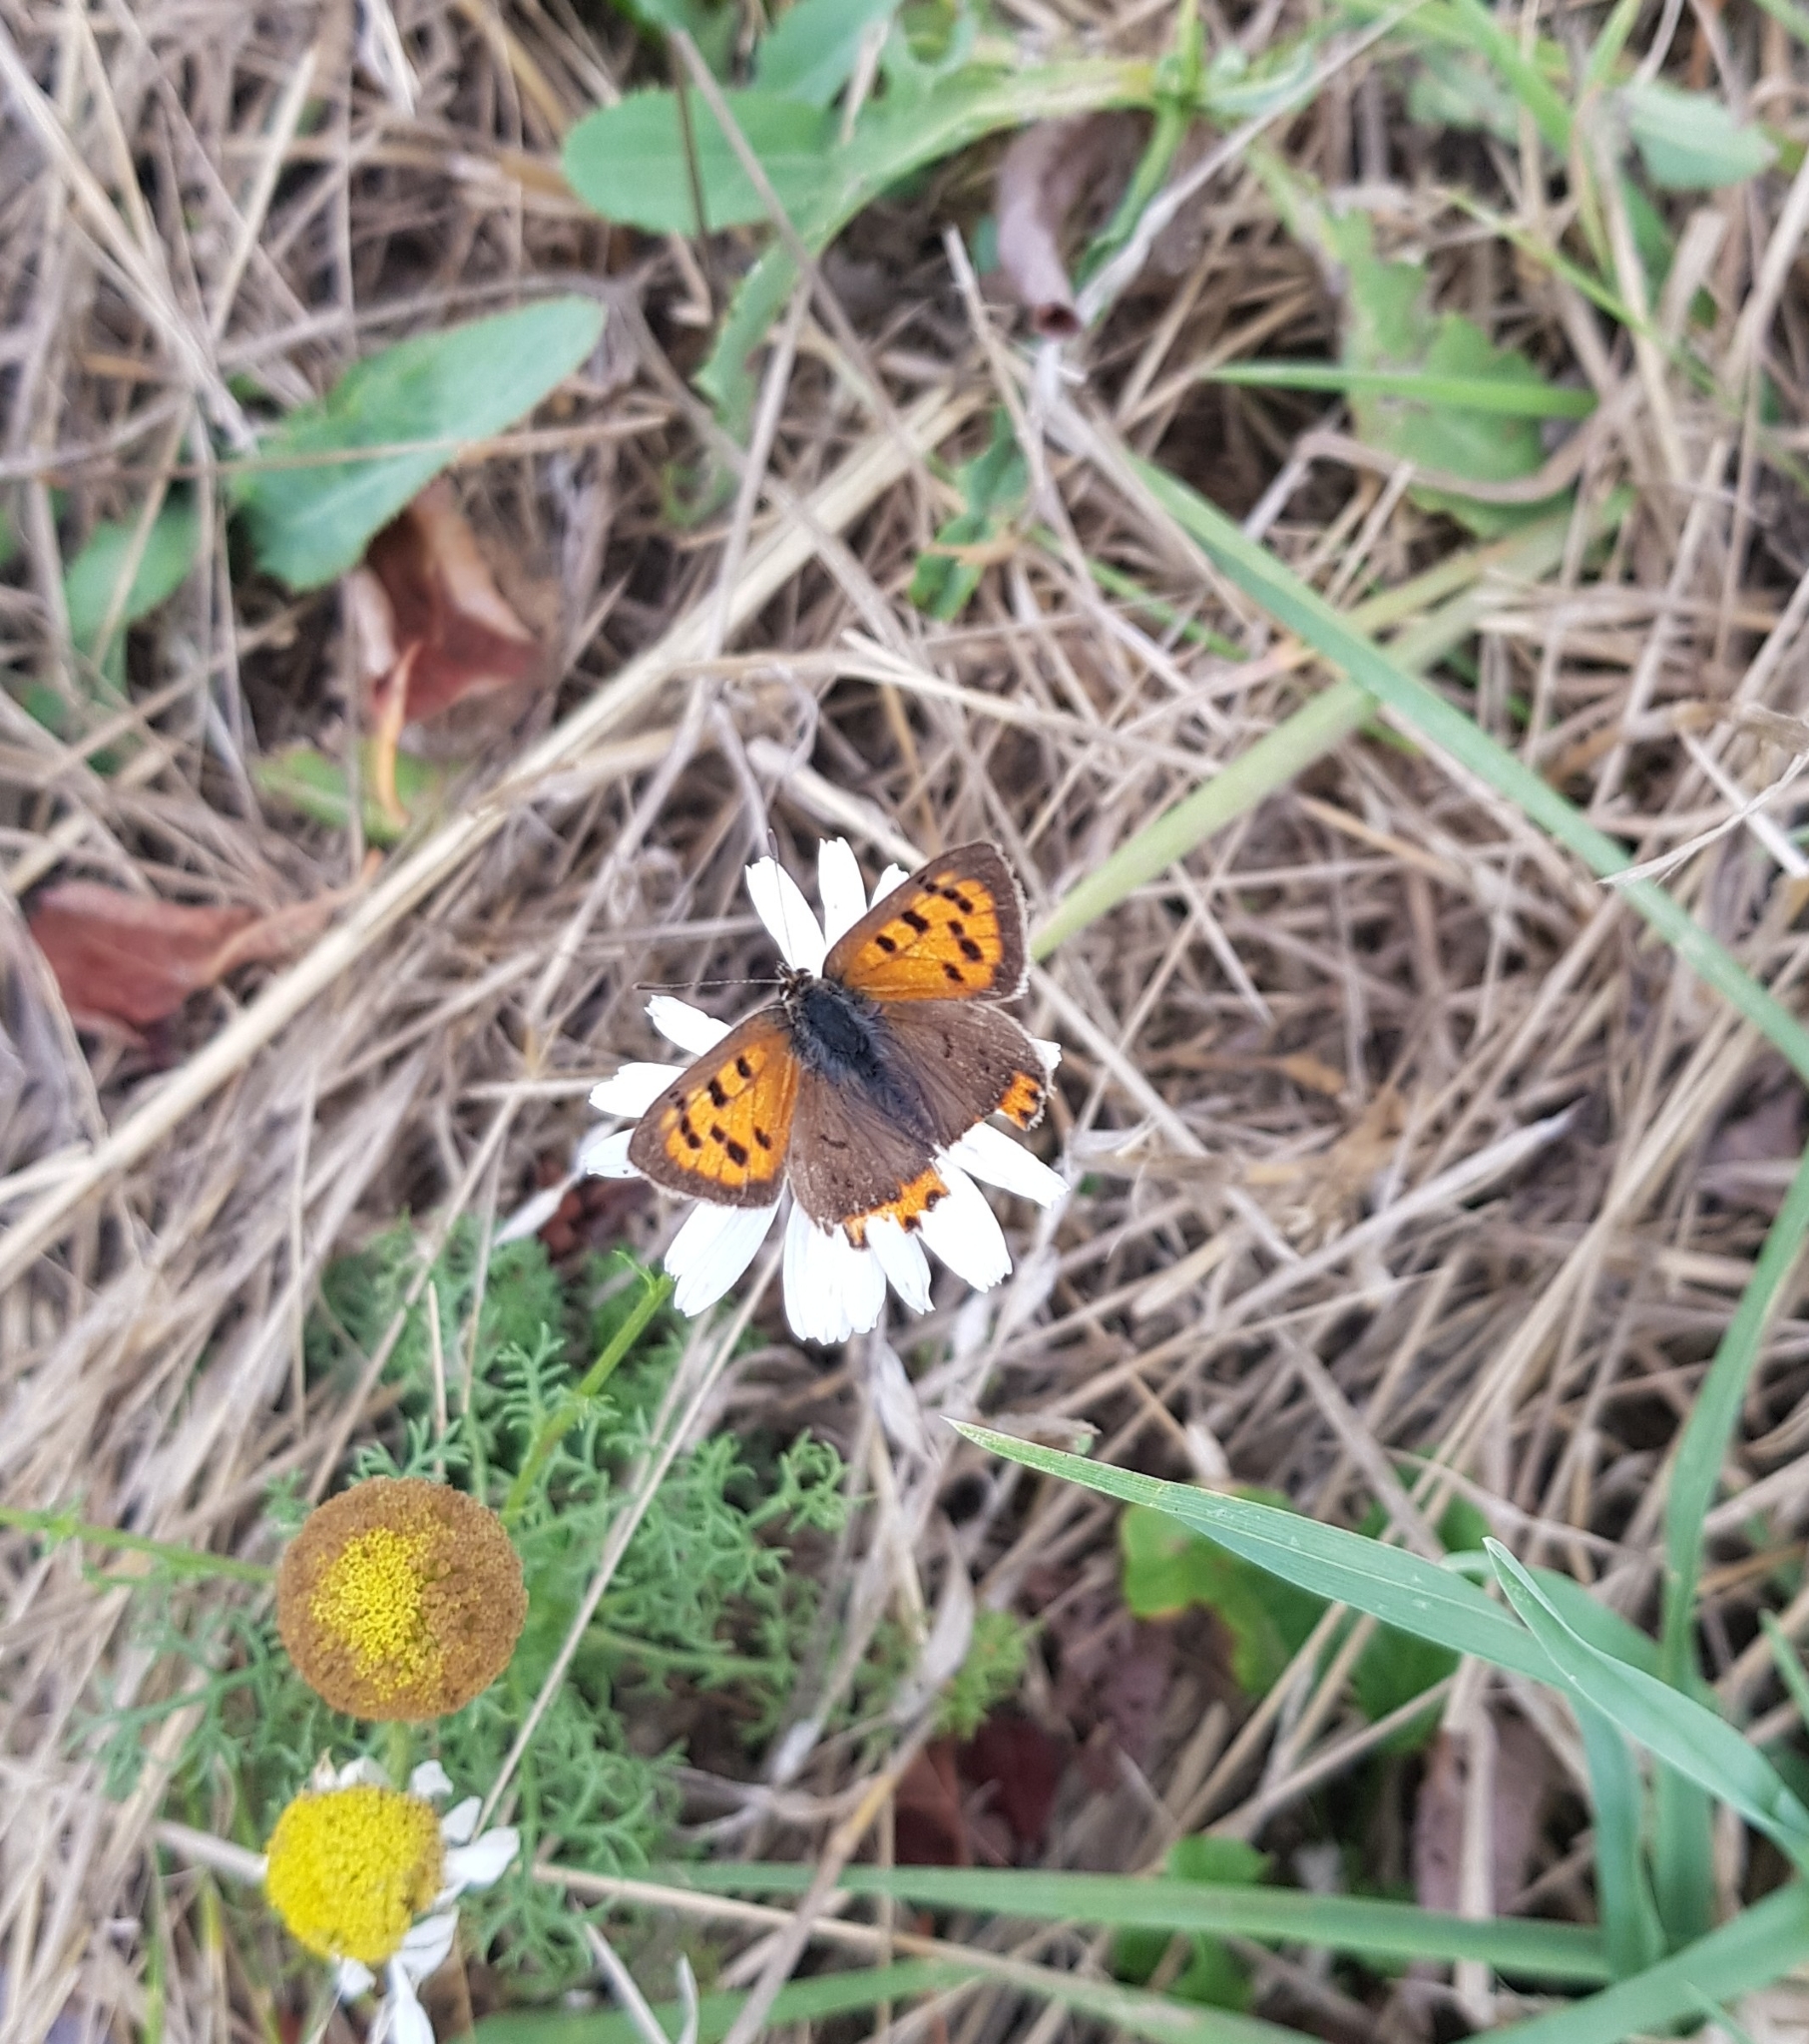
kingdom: Animalia
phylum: Arthropoda
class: Insecta
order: Lepidoptera
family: Lycaenidae
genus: Lycaena
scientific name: Lycaena phlaeas
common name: Small copper
